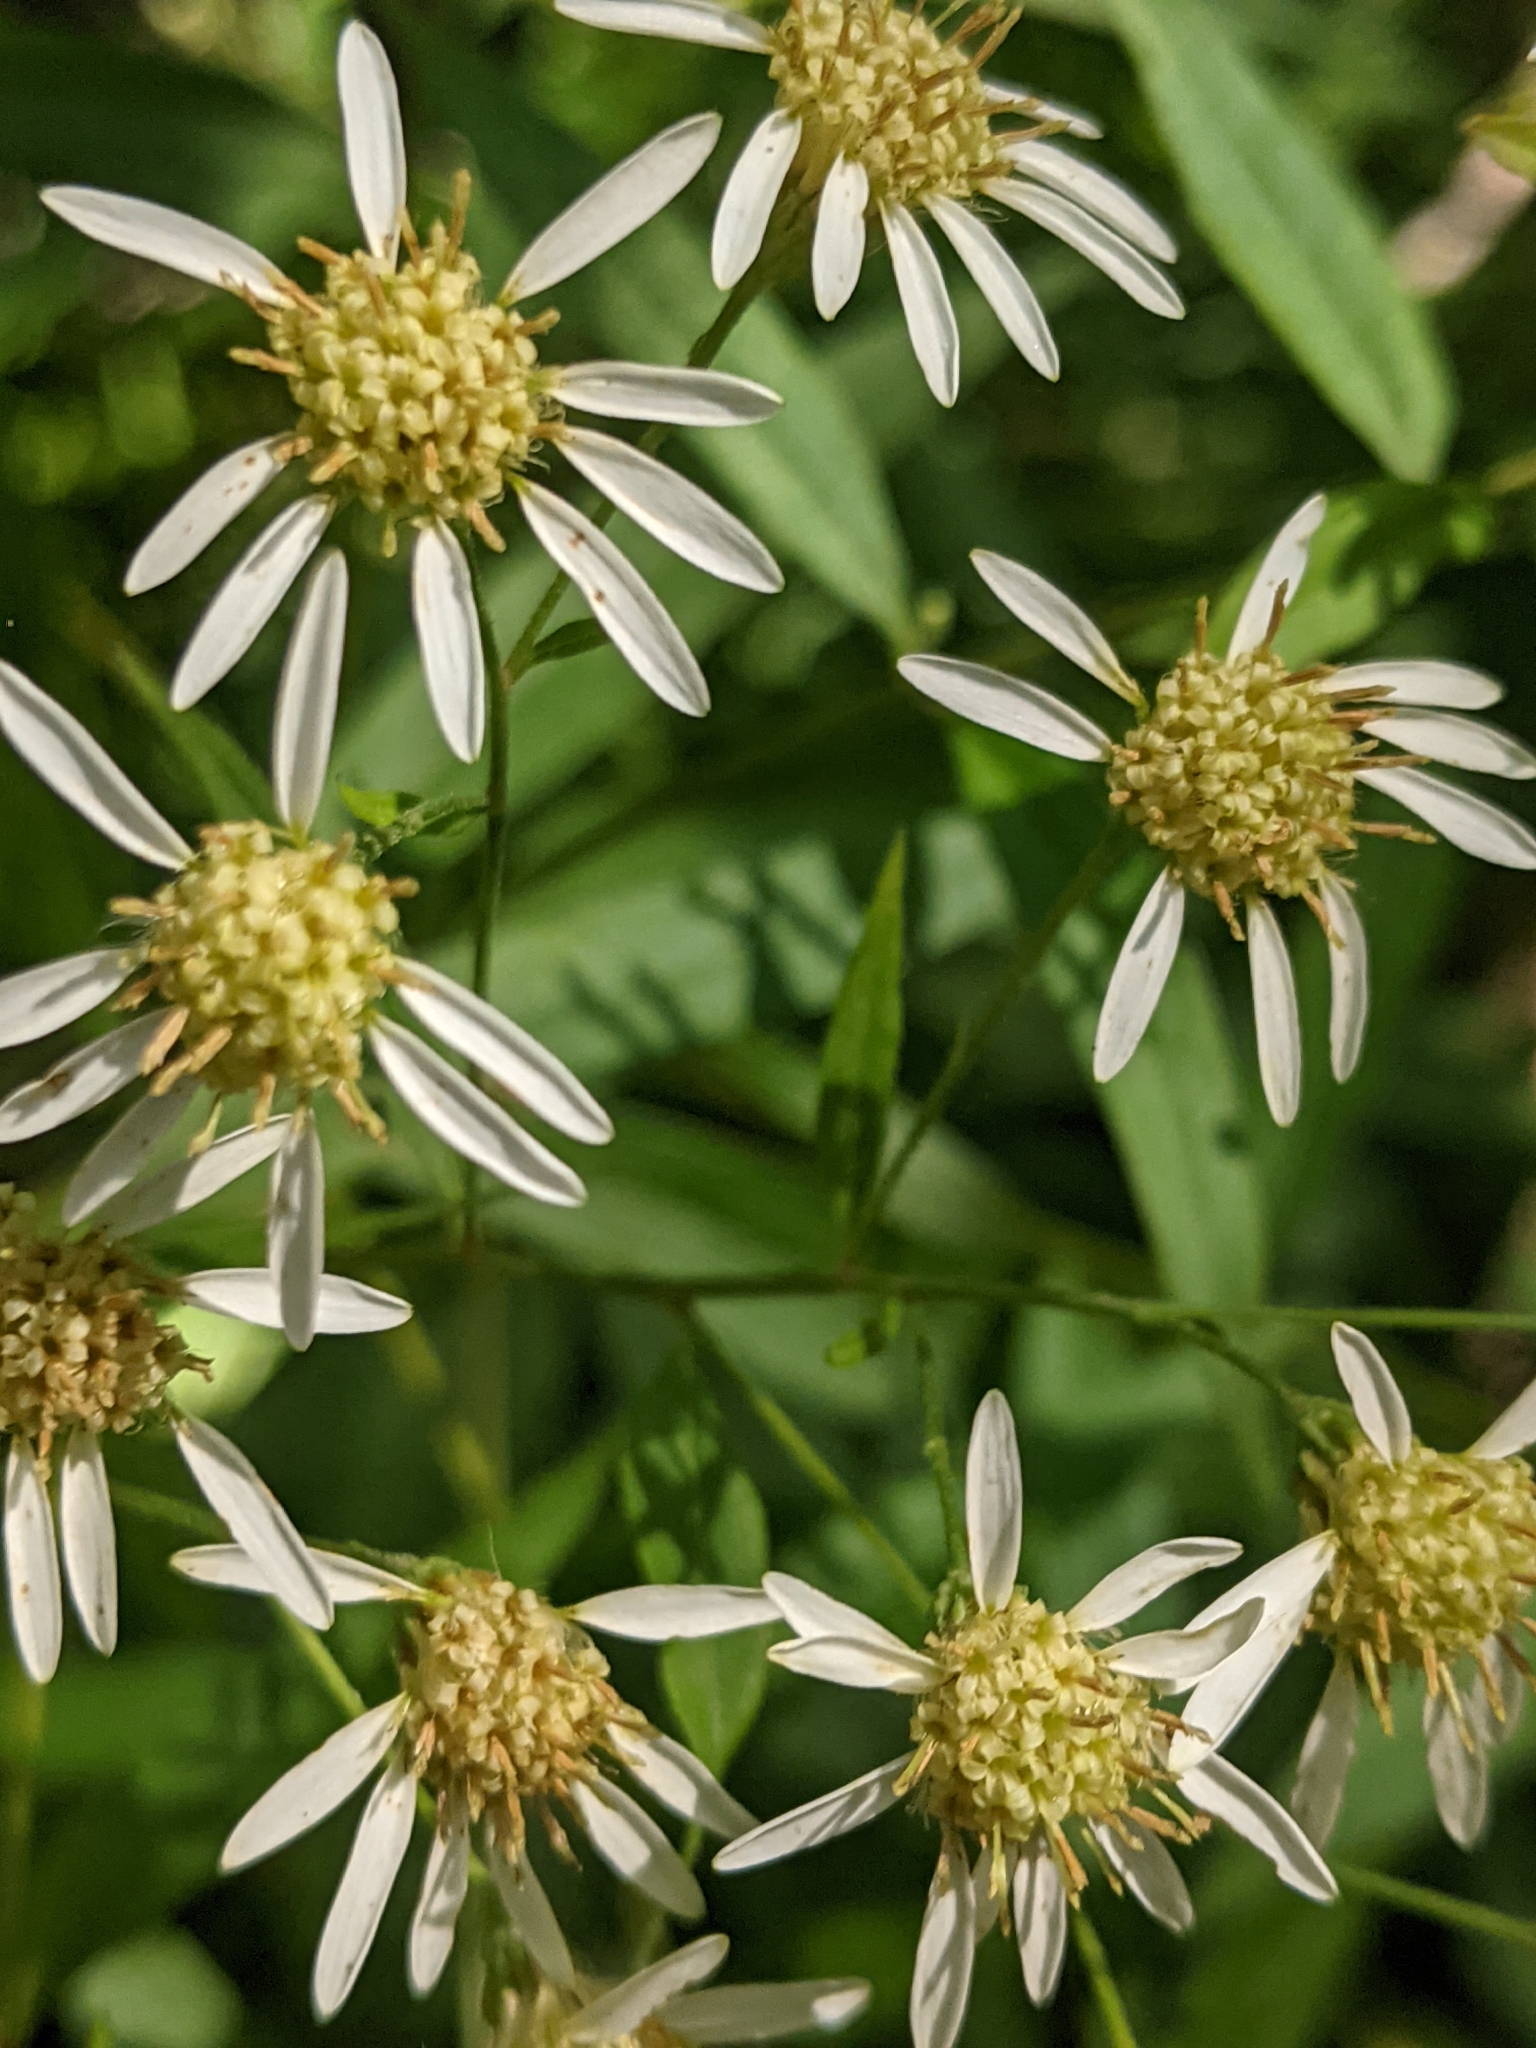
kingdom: Plantae
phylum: Tracheophyta
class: Magnoliopsida
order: Asterales
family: Asteraceae
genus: Doellingeria
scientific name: Doellingeria umbellata
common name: Flat-top white aster
